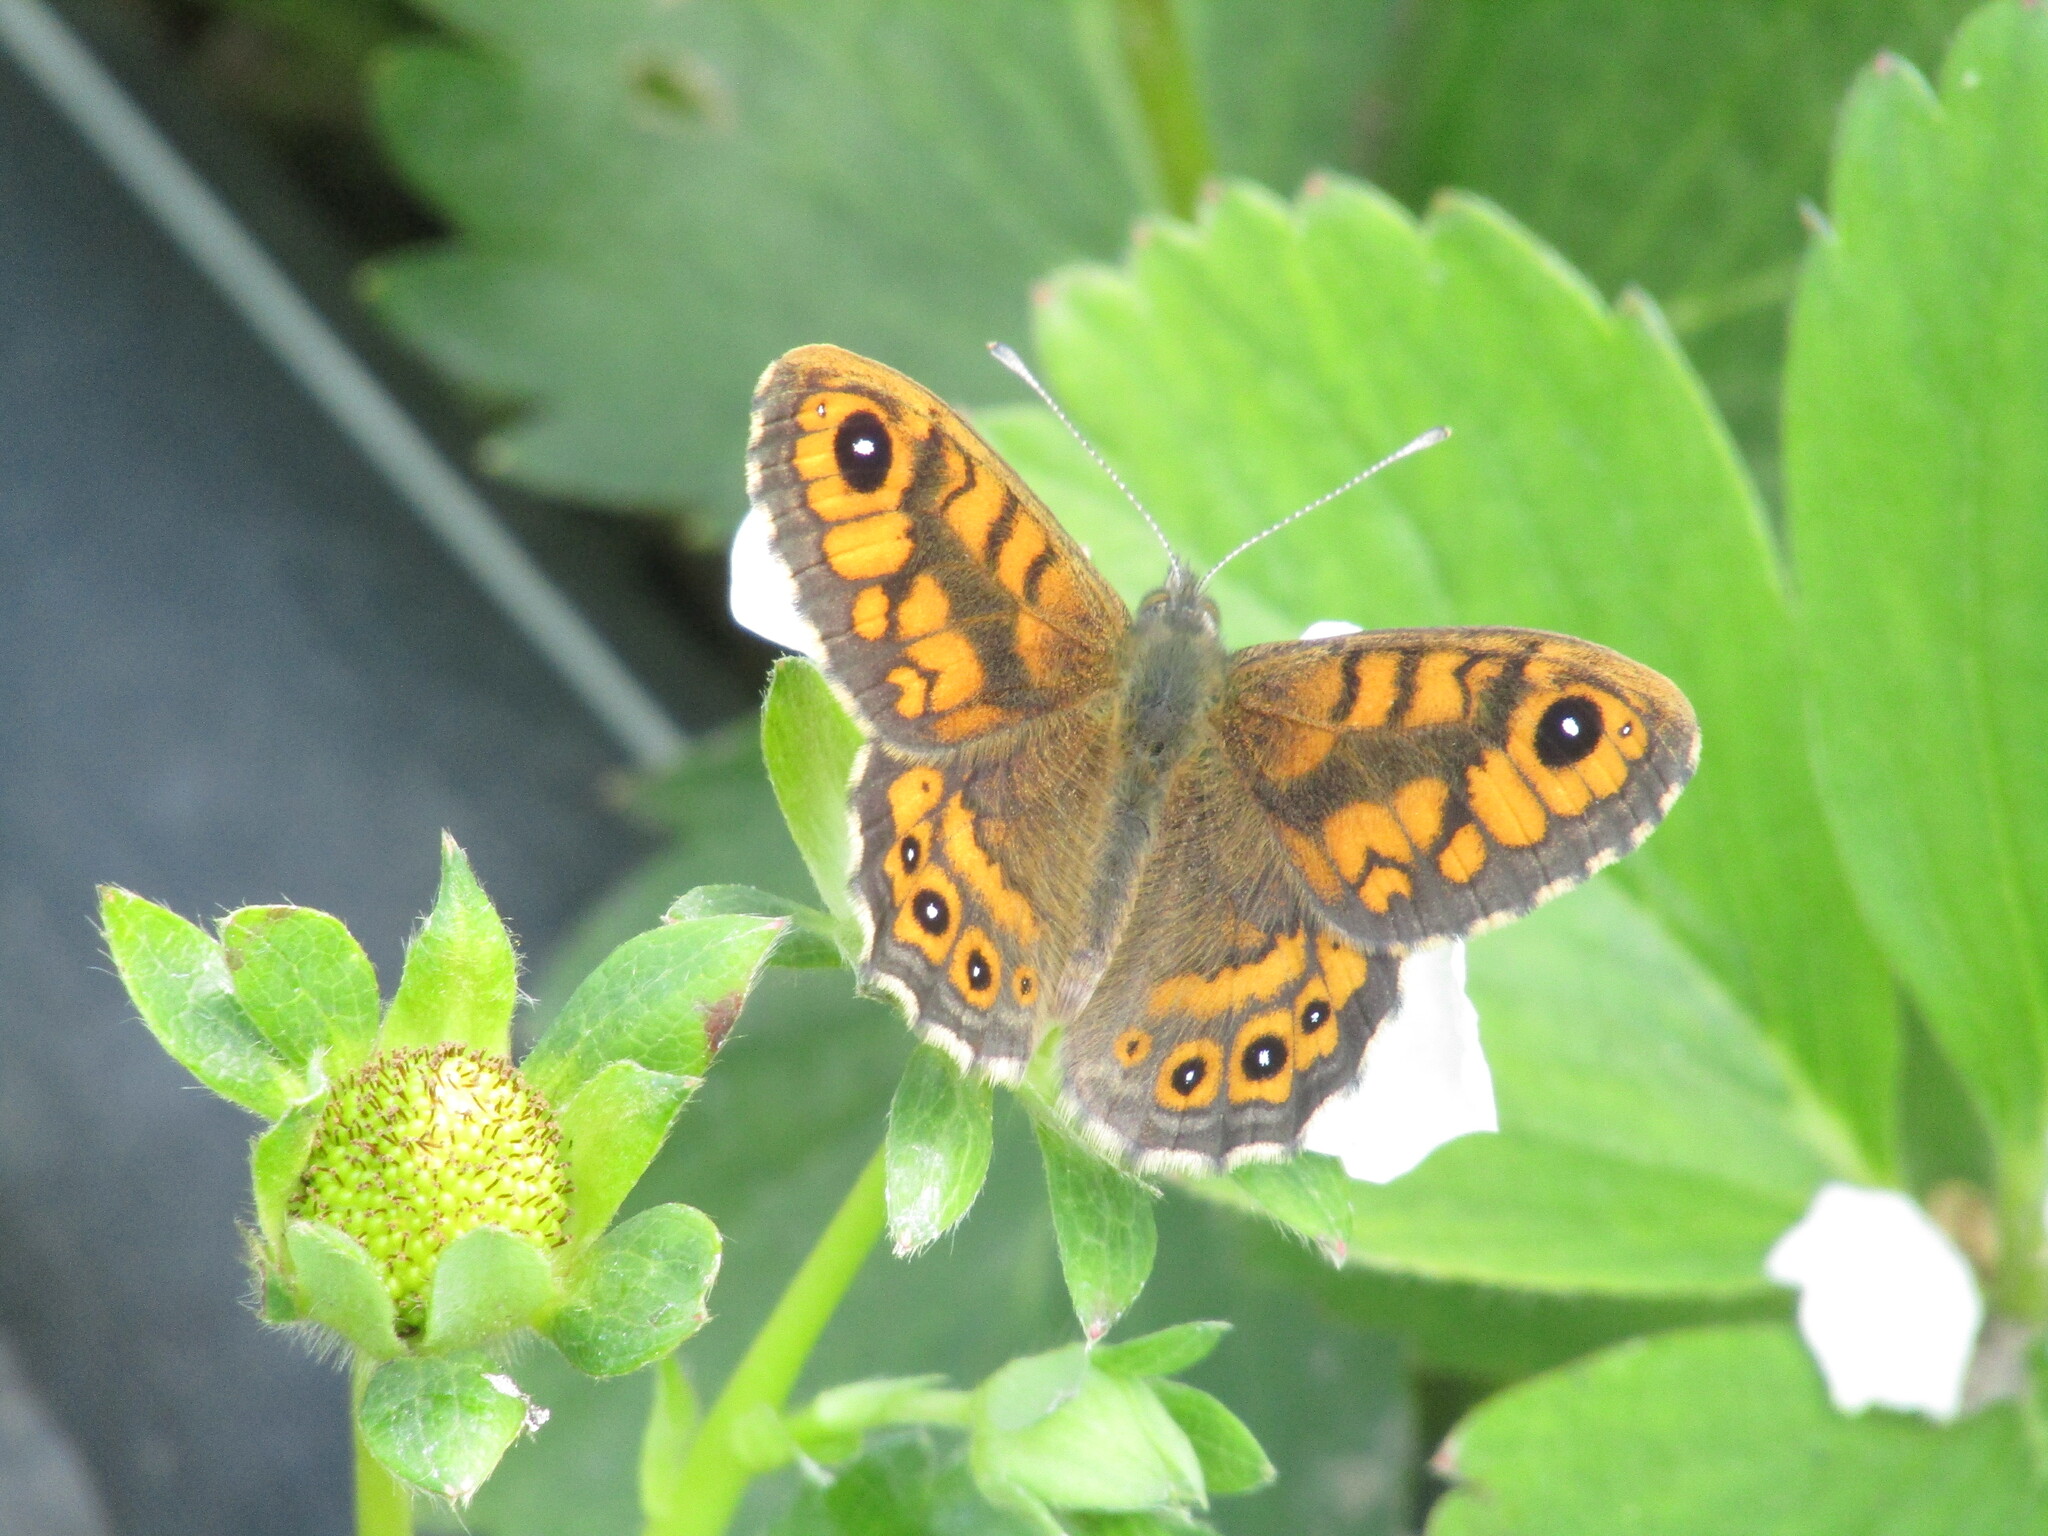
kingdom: Animalia
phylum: Arthropoda
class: Insecta
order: Lepidoptera
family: Nymphalidae
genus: Pararge
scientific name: Pararge Lasiommata megera
